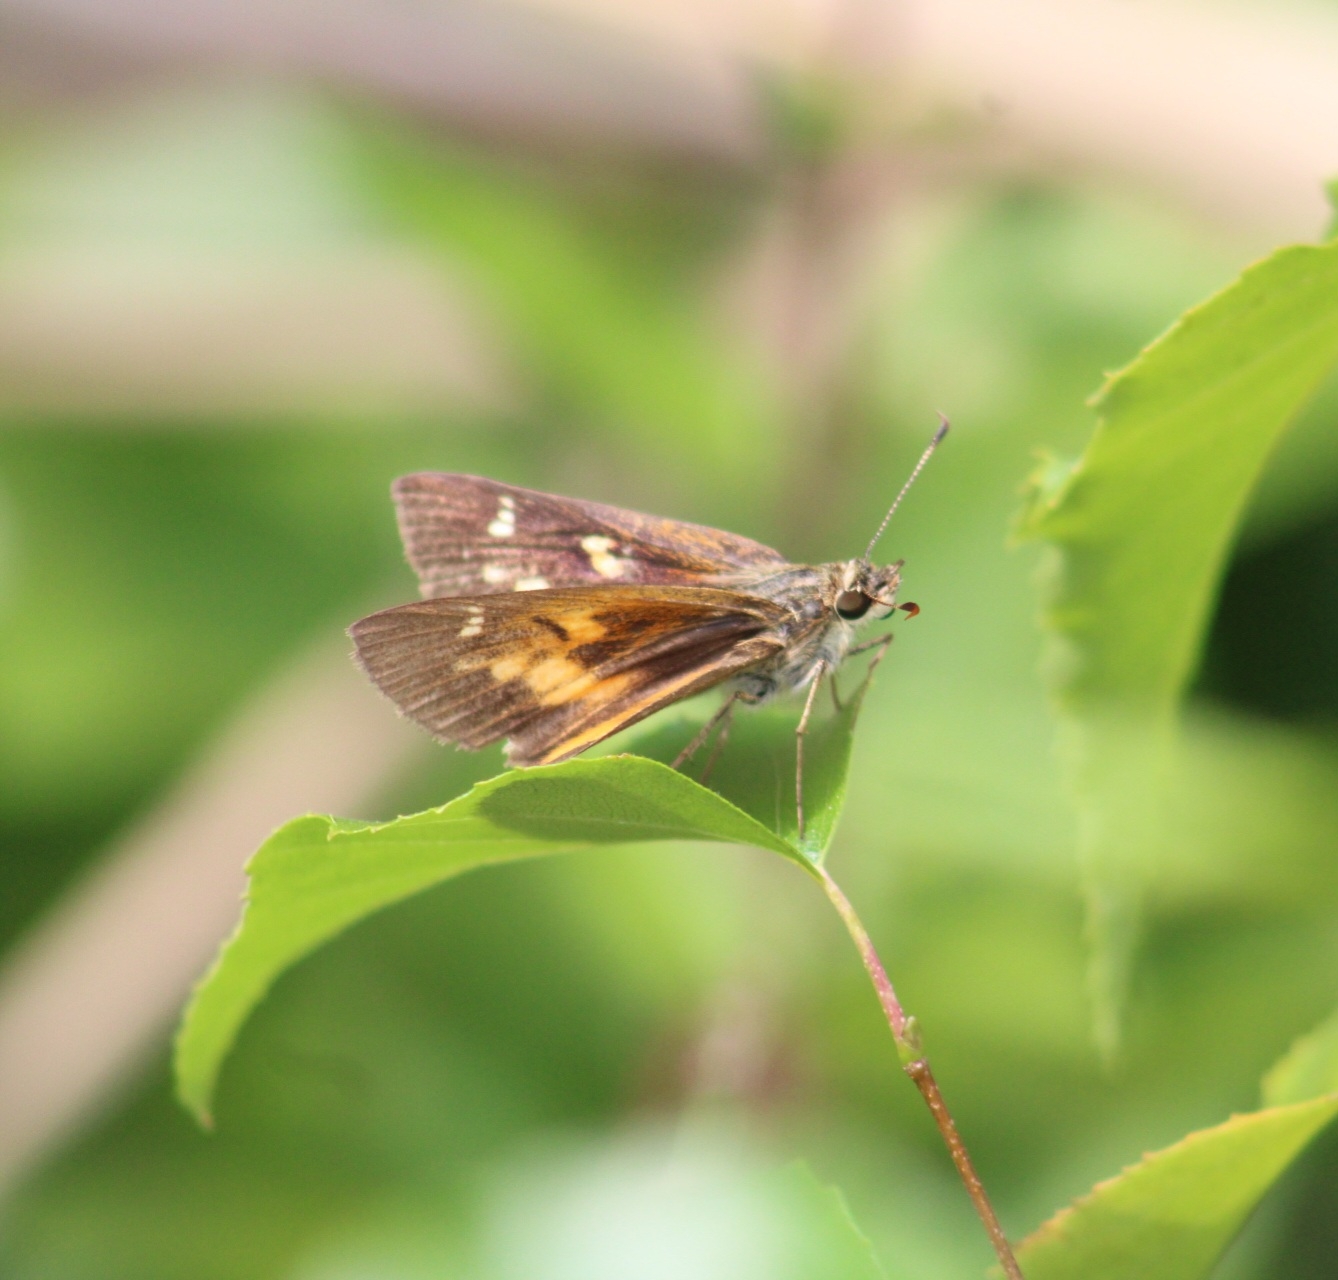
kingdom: Animalia
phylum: Arthropoda
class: Insecta
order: Lepidoptera
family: Hesperiidae
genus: Poanes
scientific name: Poanes viator
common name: Broad-winged skipper
